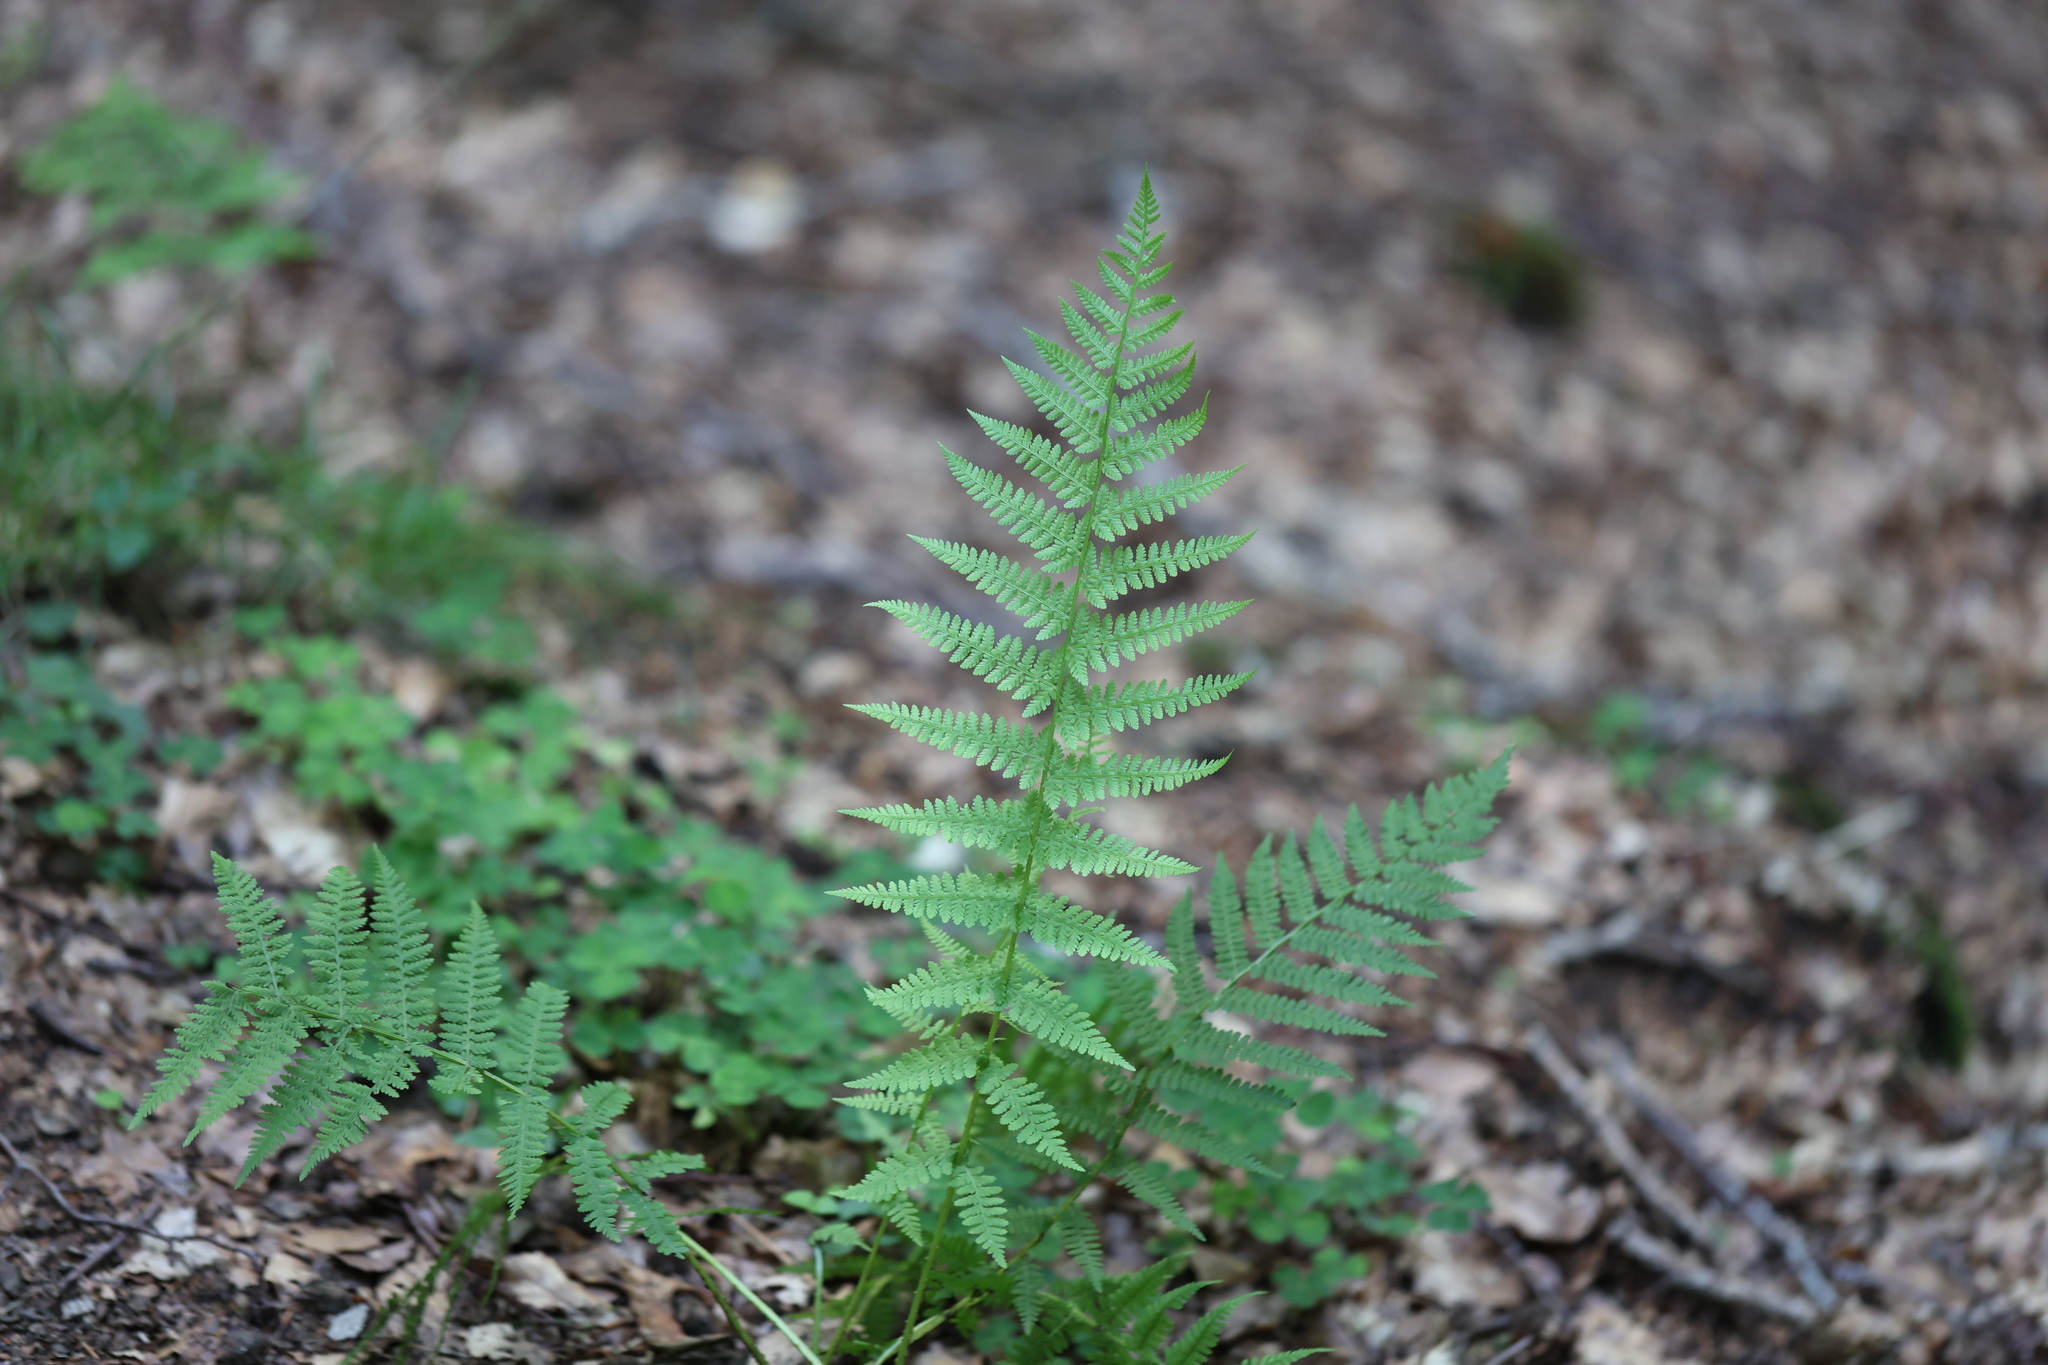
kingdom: Plantae
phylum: Tracheophyta
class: Polypodiopsida
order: Polypodiales
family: Athyriaceae
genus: Athyrium
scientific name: Athyrium filix-femina
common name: Lady fern
